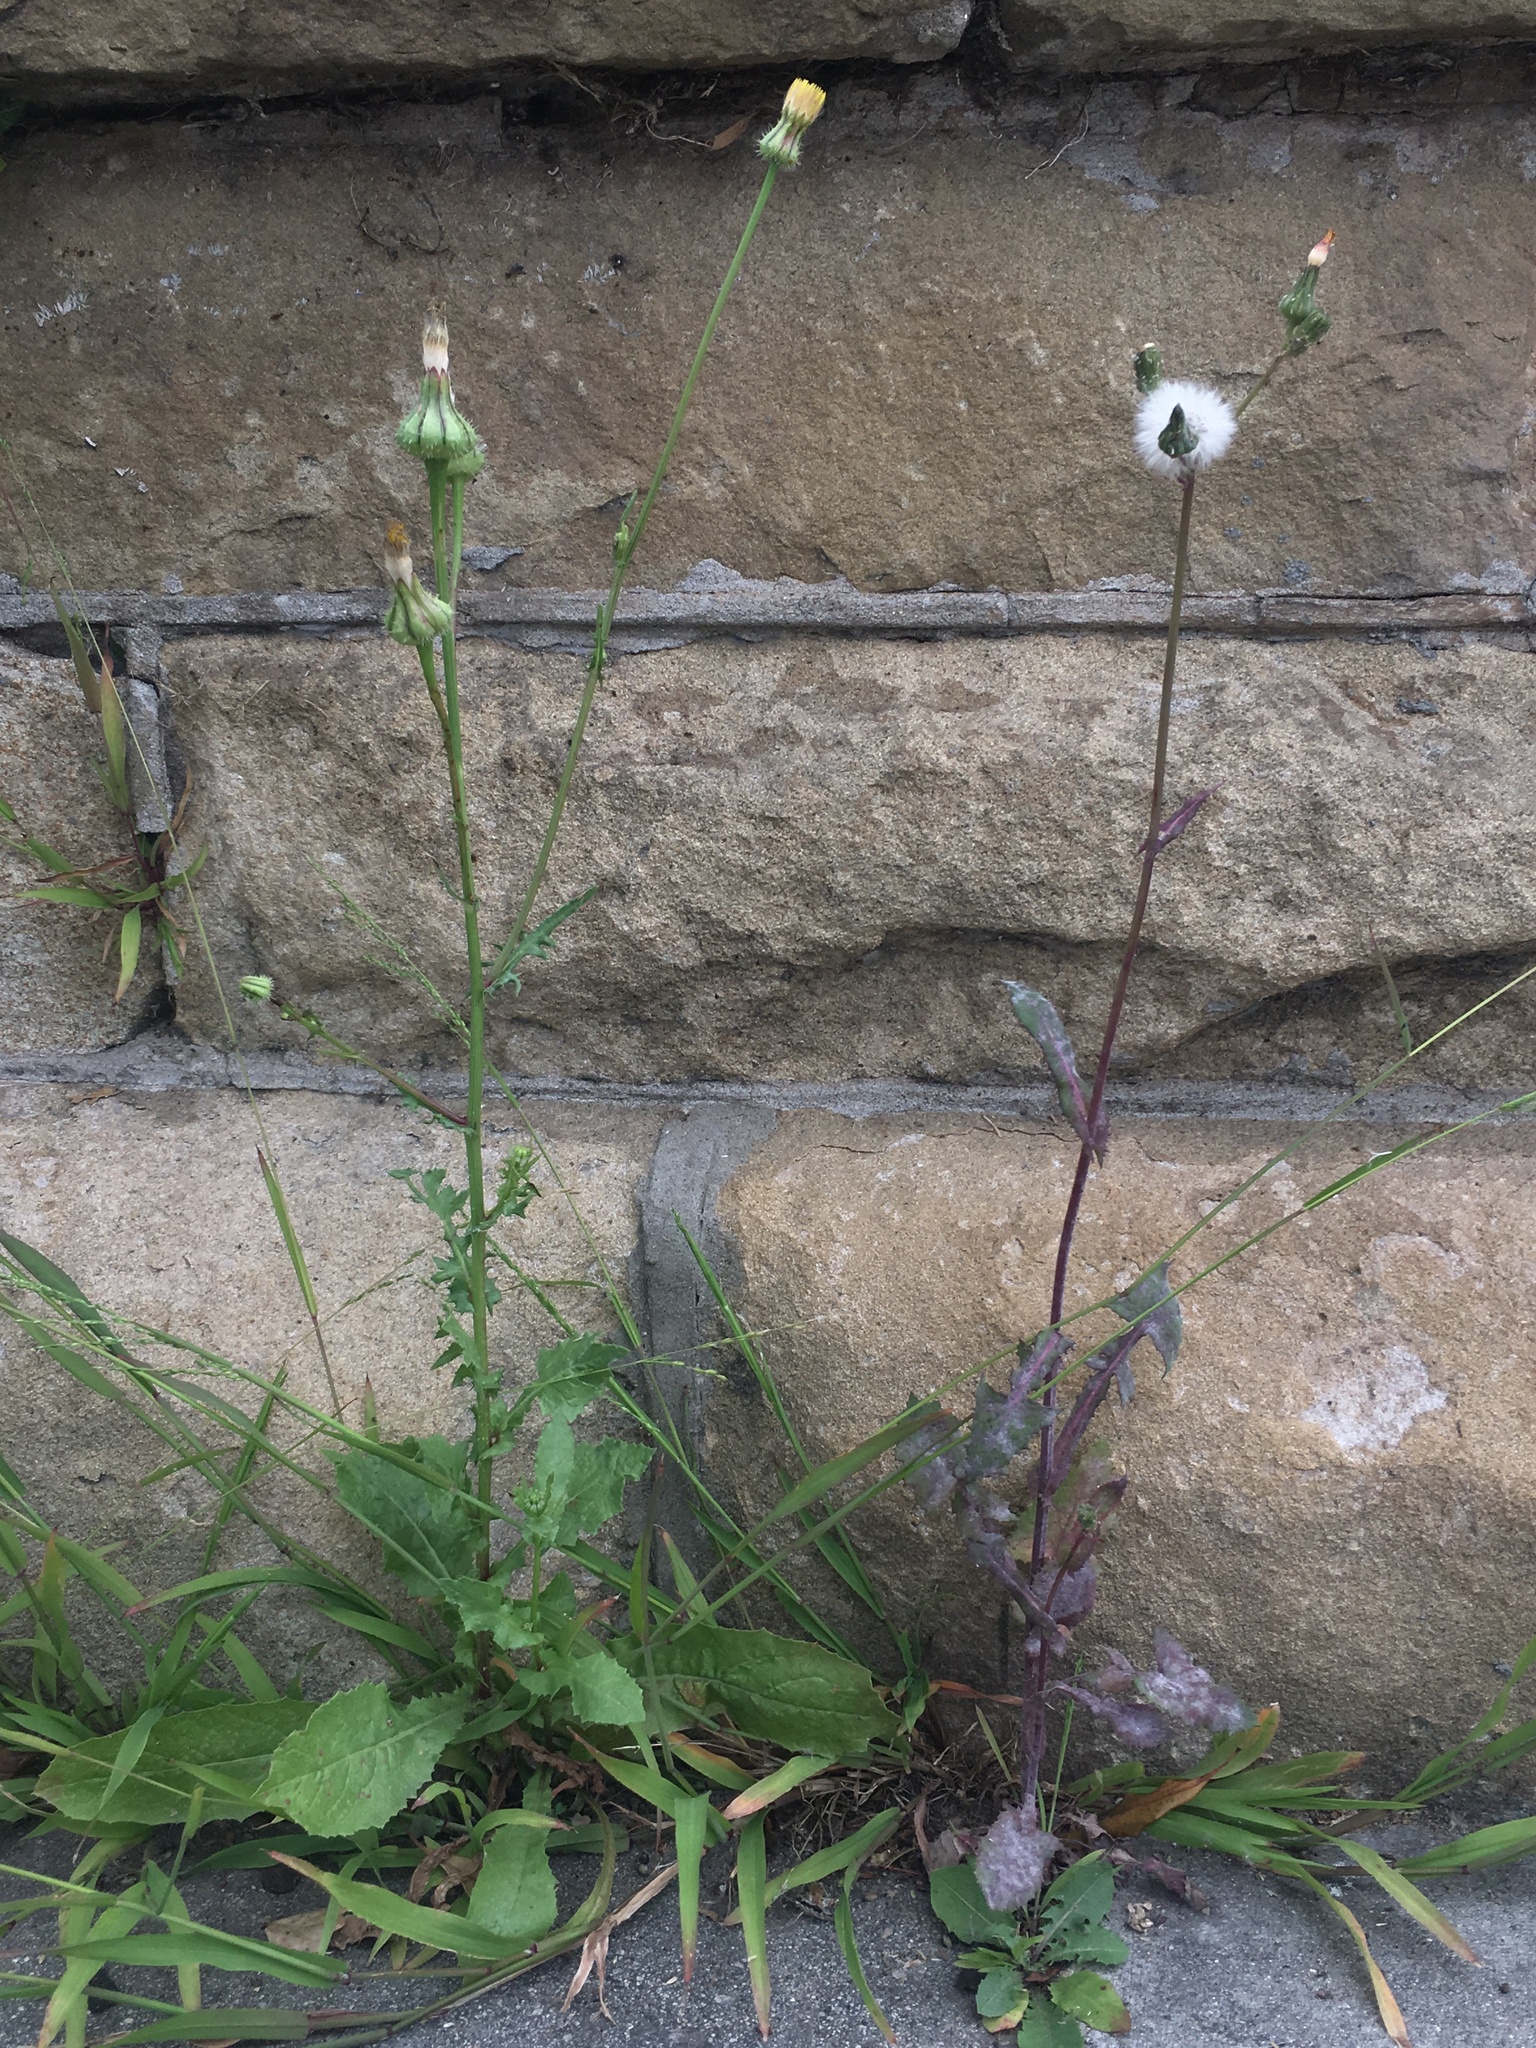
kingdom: Plantae
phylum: Tracheophyta
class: Magnoliopsida
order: Asterales
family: Asteraceae
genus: Urospermum
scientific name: Urospermum picroides
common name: False hawkbit
